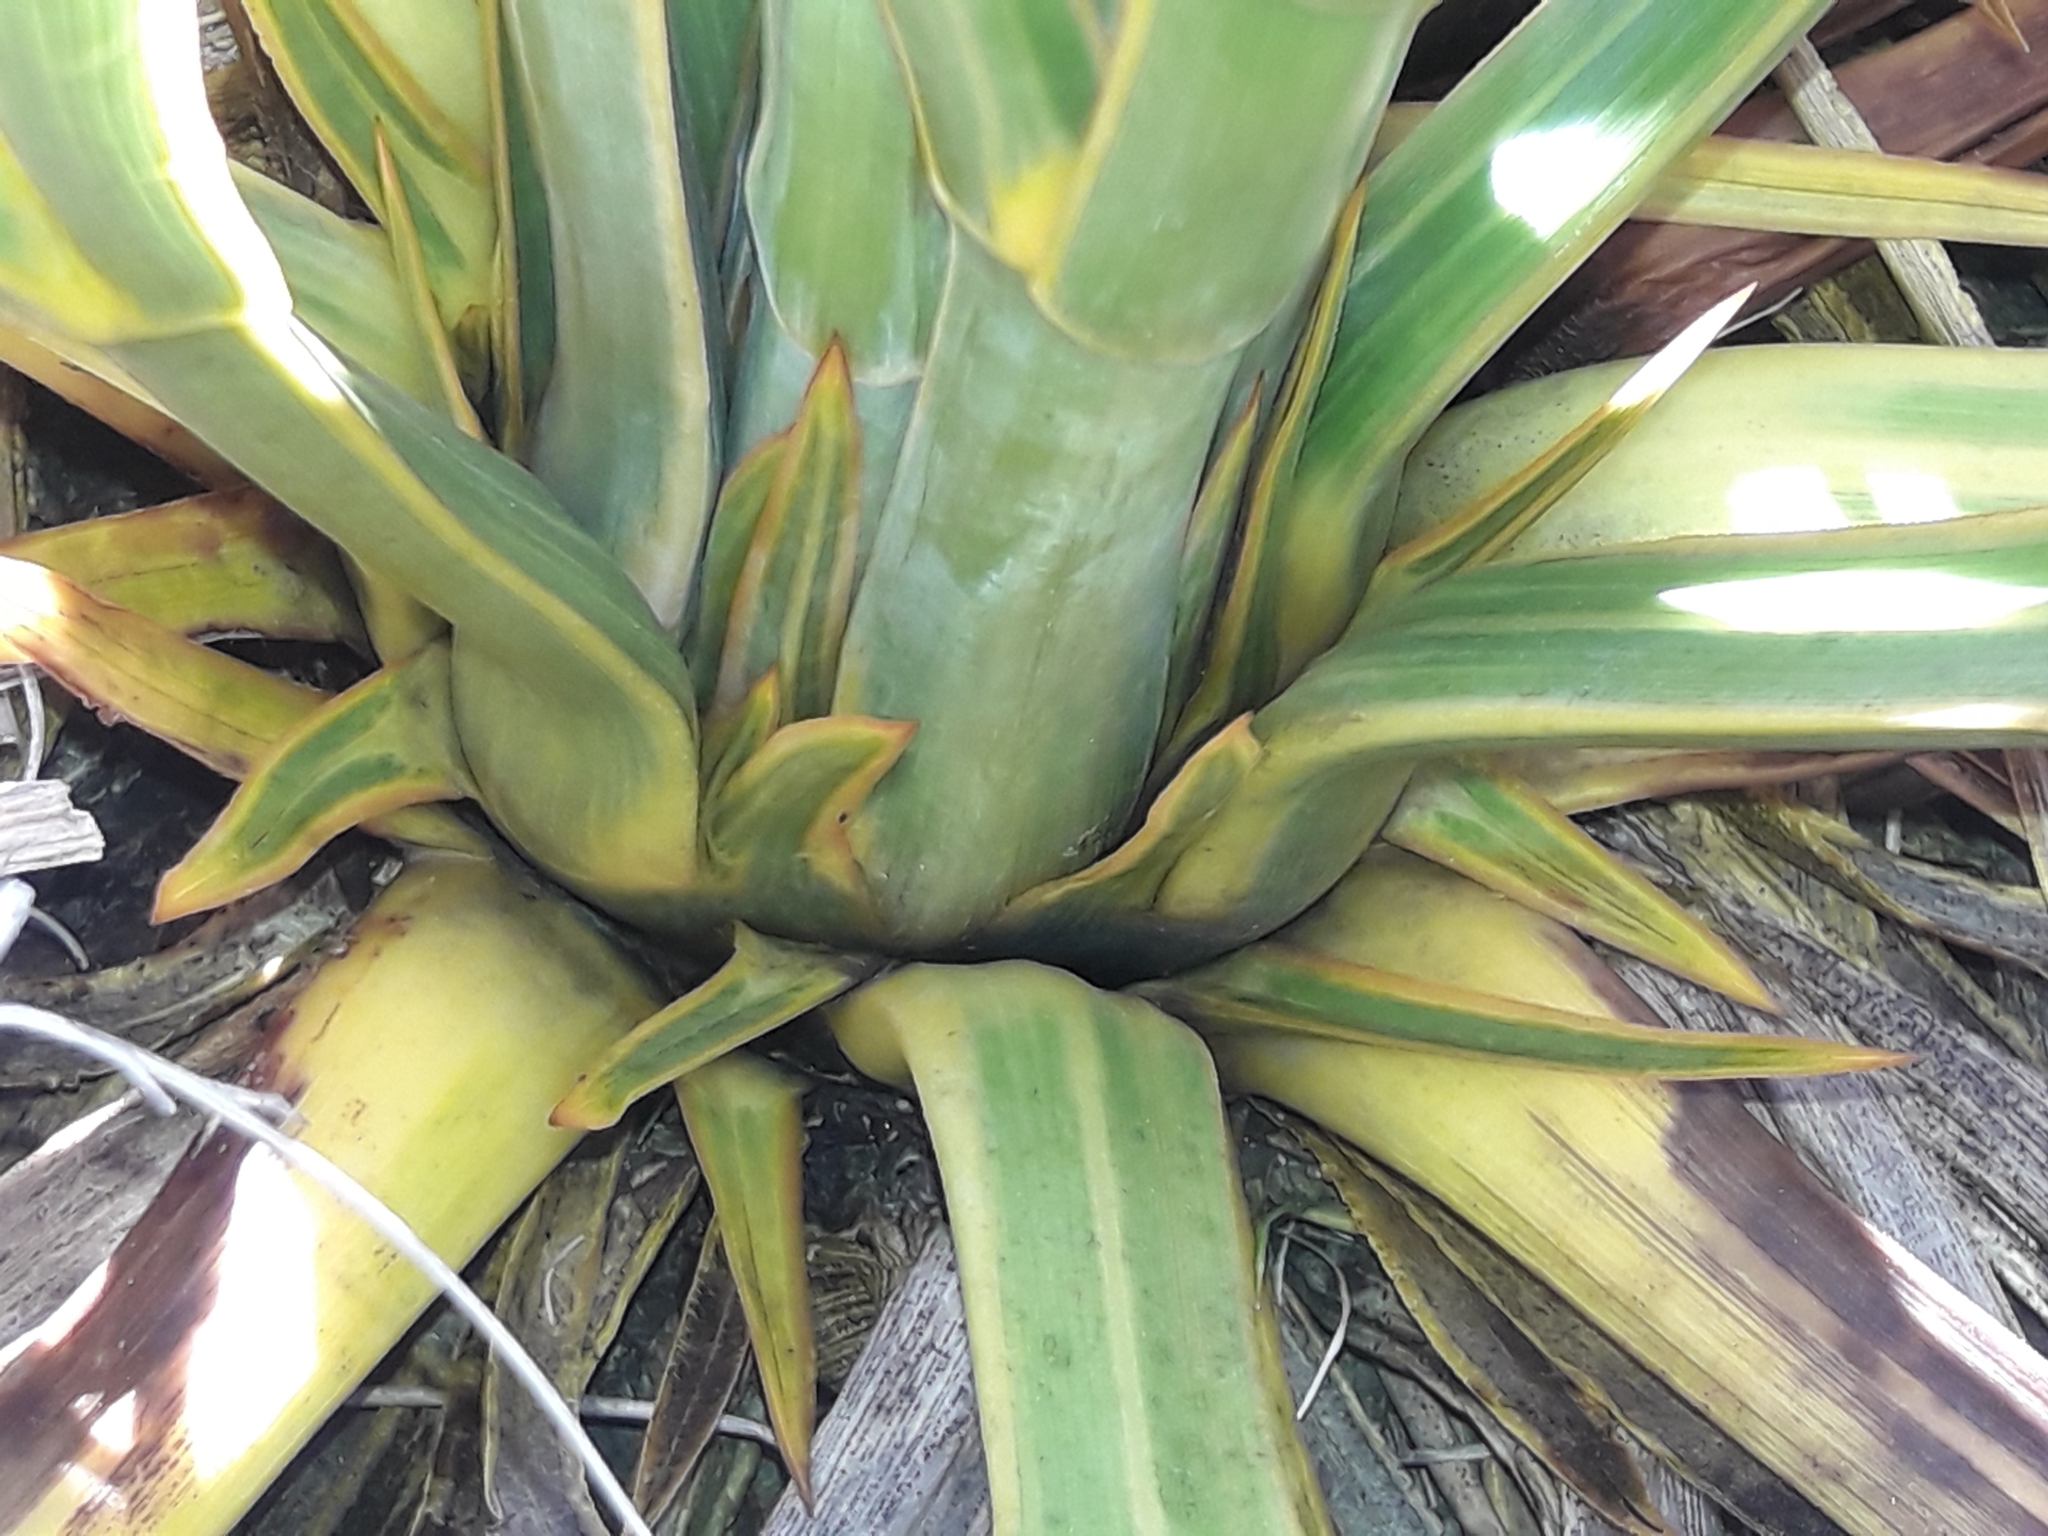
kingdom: Plantae
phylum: Tracheophyta
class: Magnoliopsida
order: Apiales
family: Apiaceae
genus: Aciphylla
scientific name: Aciphylla horrida
